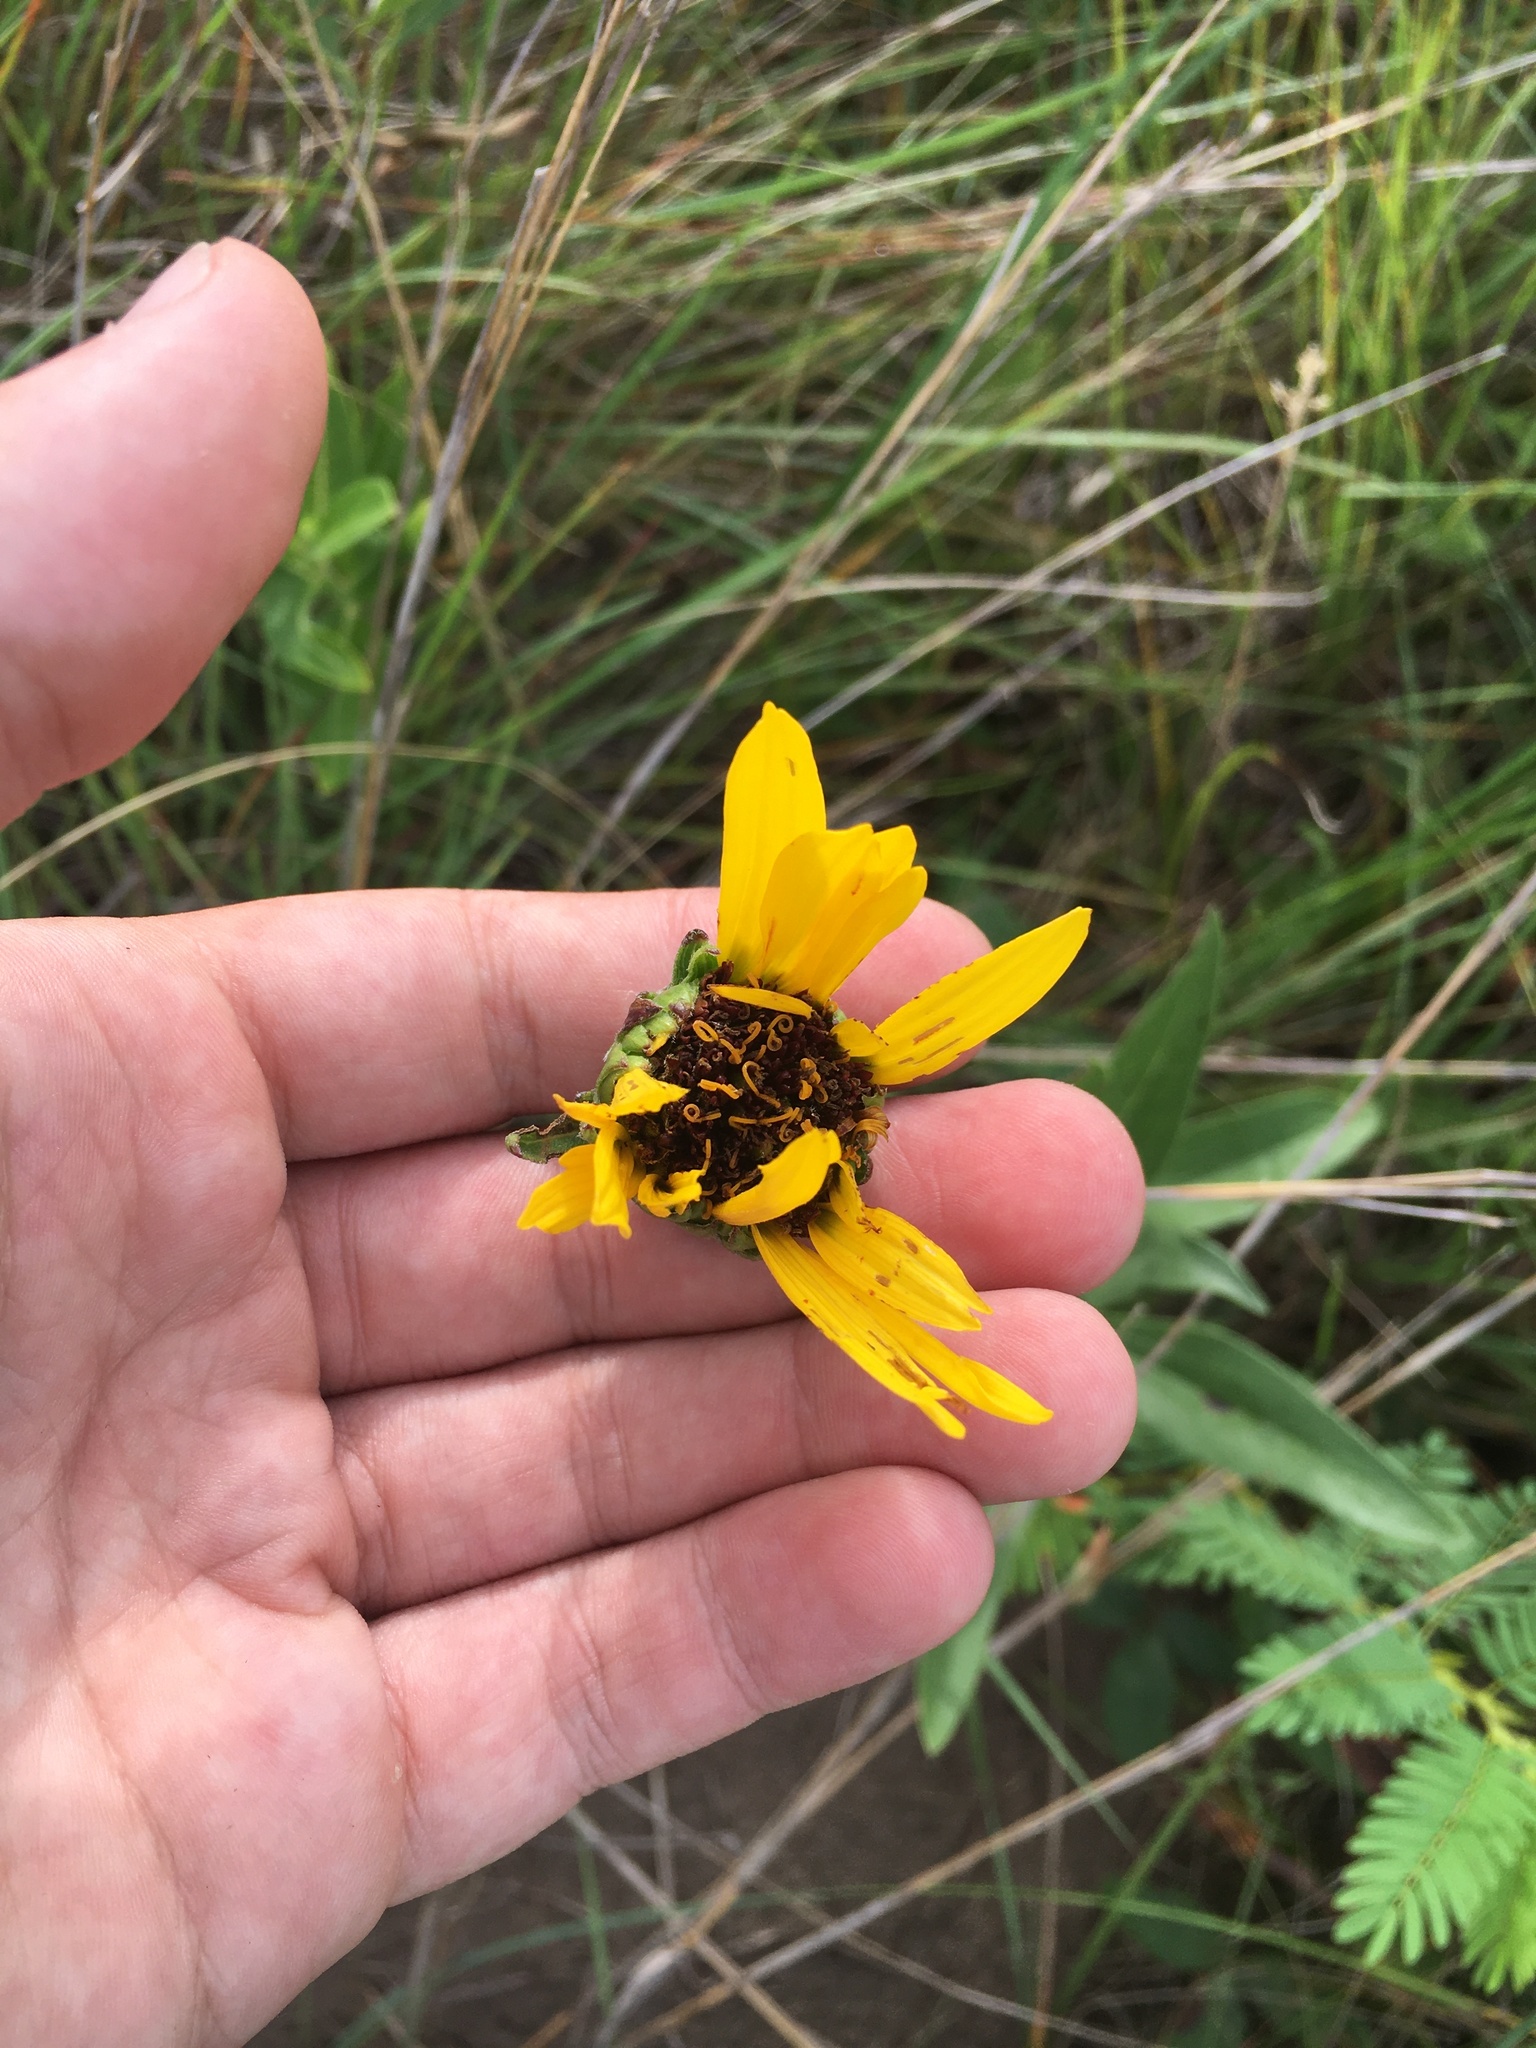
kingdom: Plantae
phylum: Tracheophyta
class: Magnoliopsida
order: Asterales
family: Asteraceae
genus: Helianthus
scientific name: Helianthus pauciflorus
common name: Stiff sunflower
